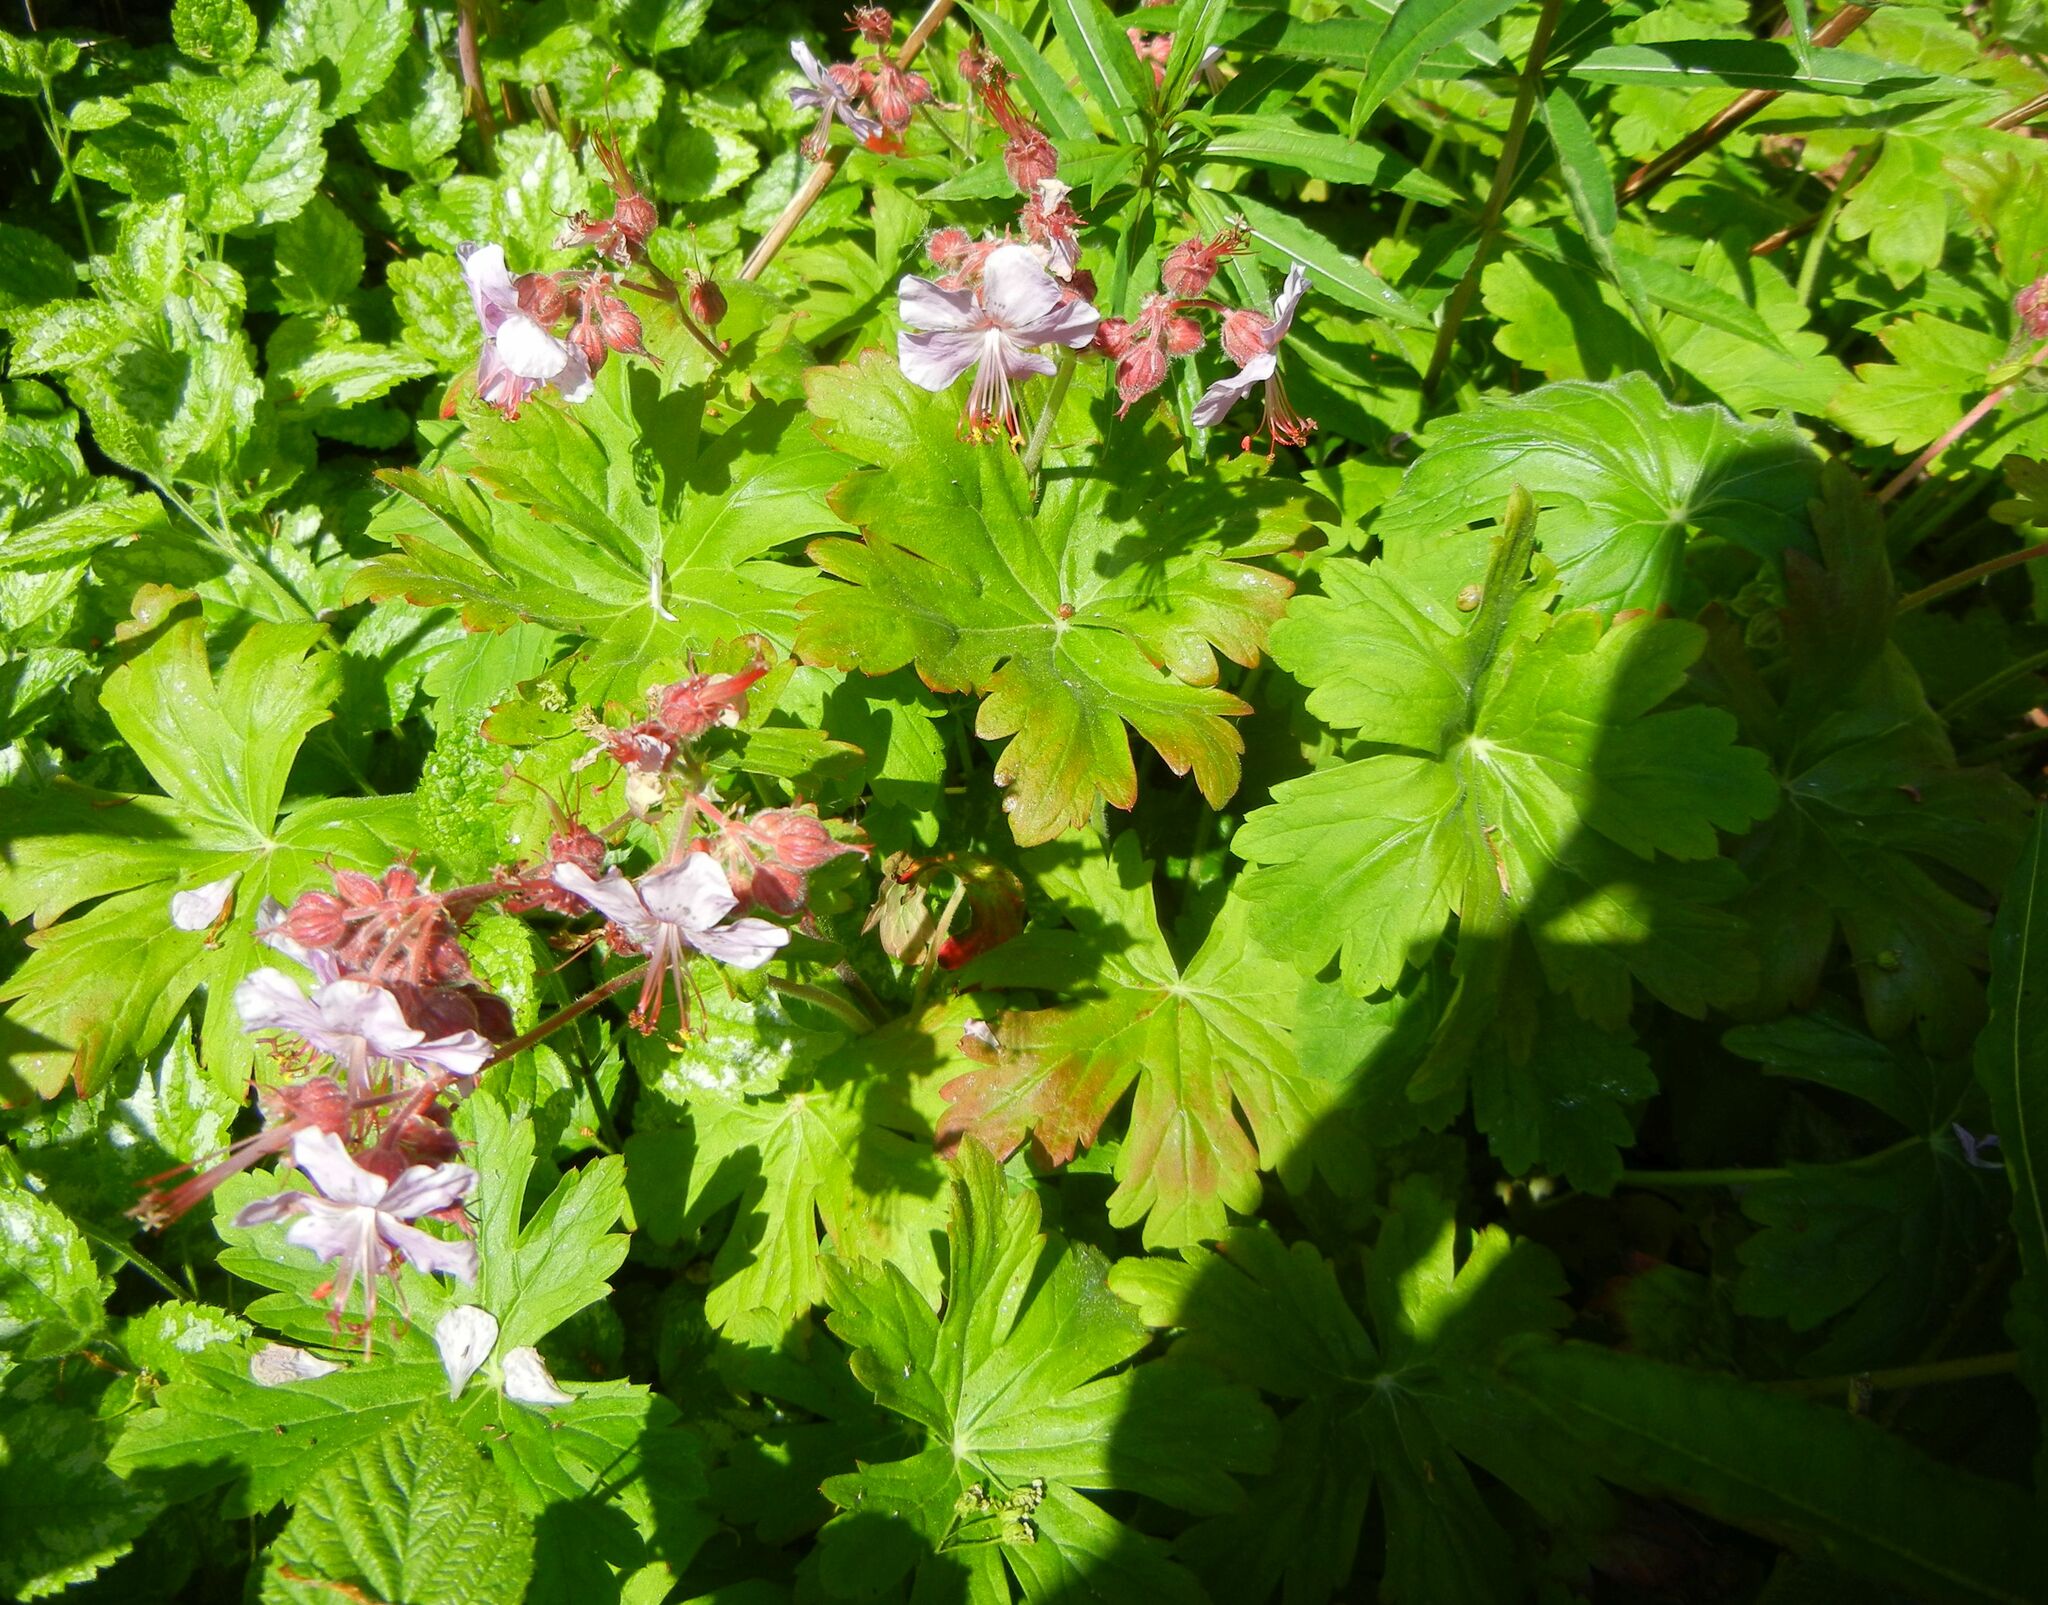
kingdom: Plantae
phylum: Tracheophyta
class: Magnoliopsida
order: Geraniales
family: Geraniaceae
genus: Geranium
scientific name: Geranium macrorrhizum
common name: Rock crane's-bill
